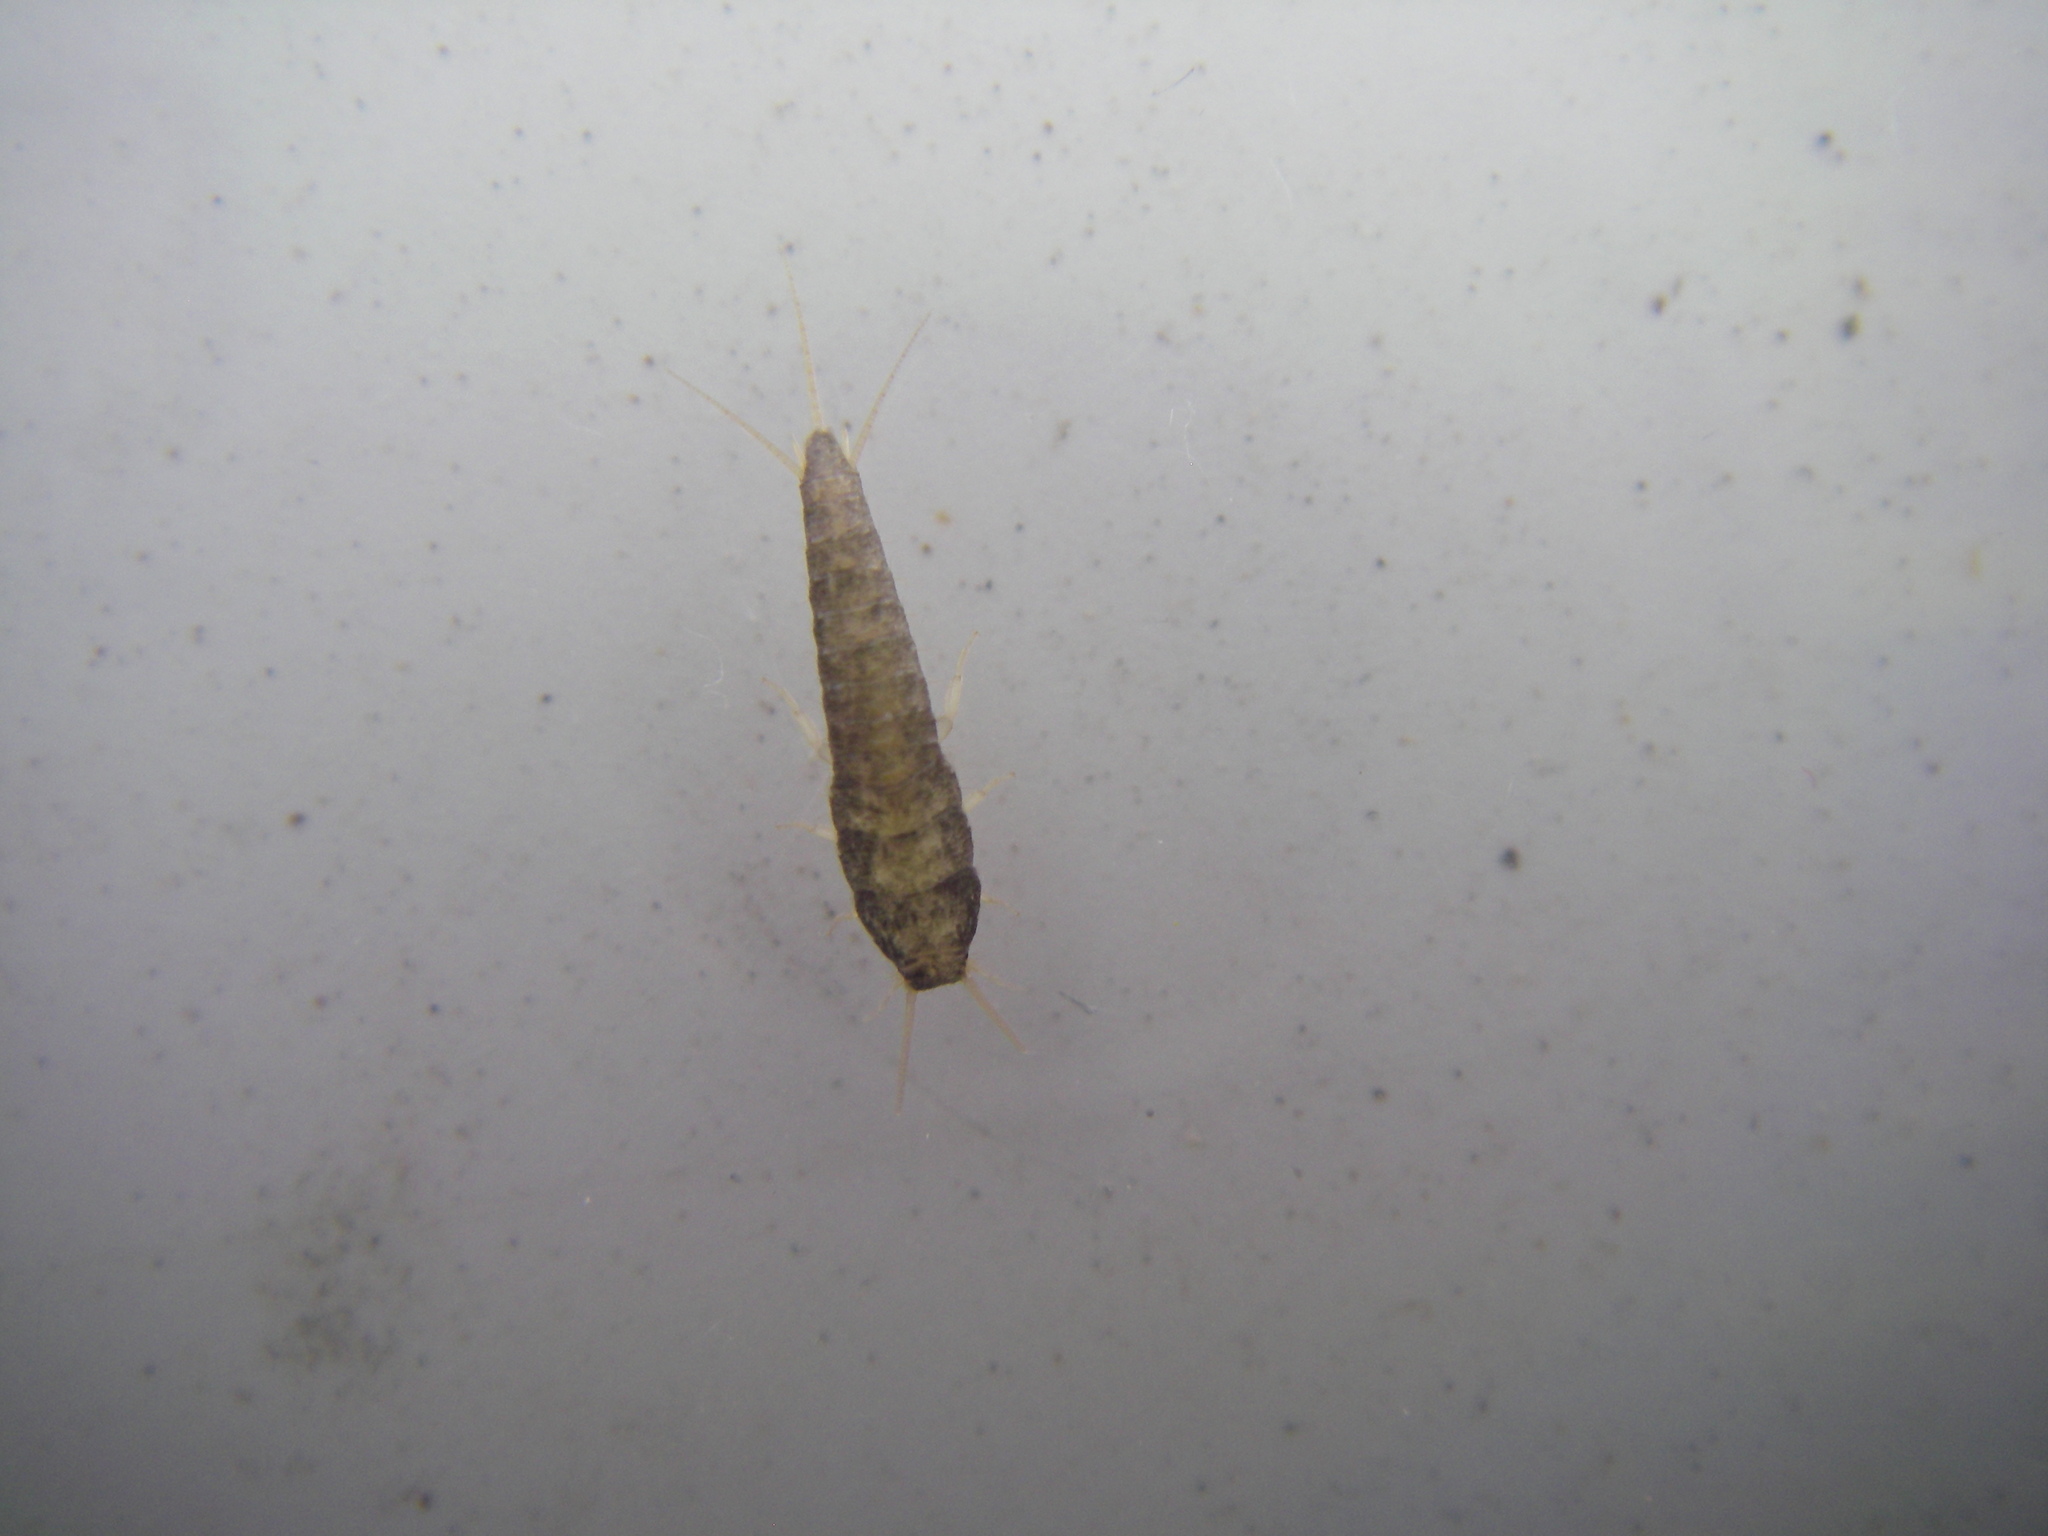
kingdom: Animalia
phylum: Arthropoda
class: Insecta
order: Zygentoma
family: Lepismatidae
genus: Lepisma
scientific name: Lepisma saccharinum
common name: Silverfish
